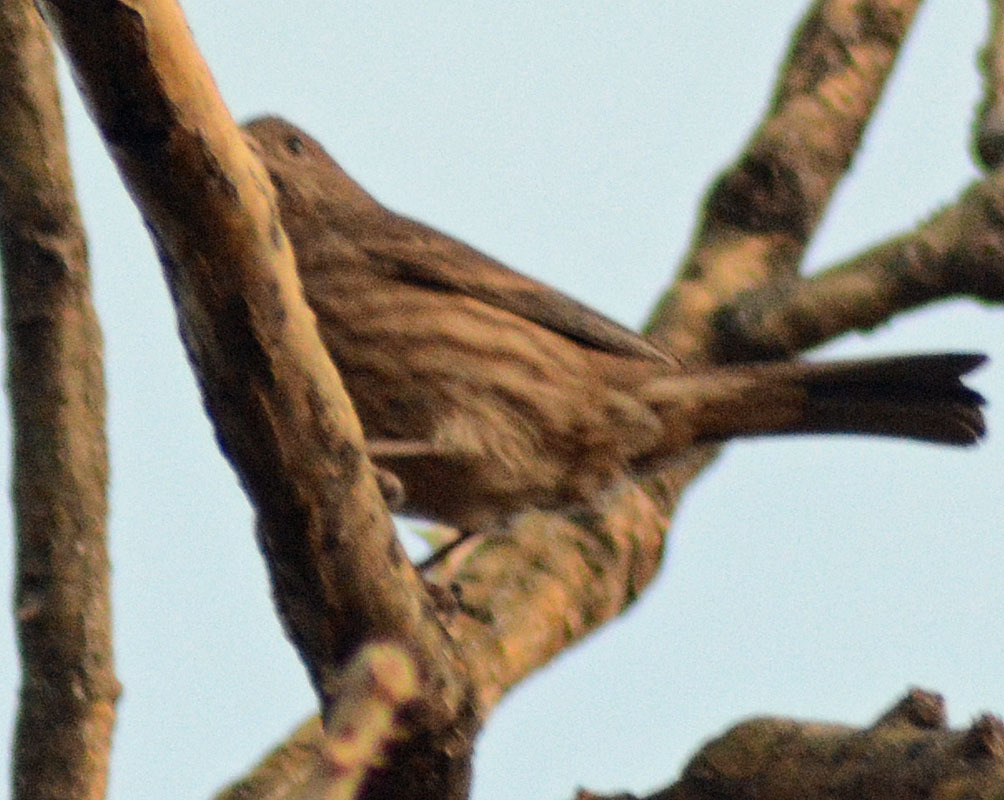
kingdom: Animalia
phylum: Chordata
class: Aves
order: Passeriformes
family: Fringillidae
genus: Haemorhous
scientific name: Haemorhous mexicanus
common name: House finch
